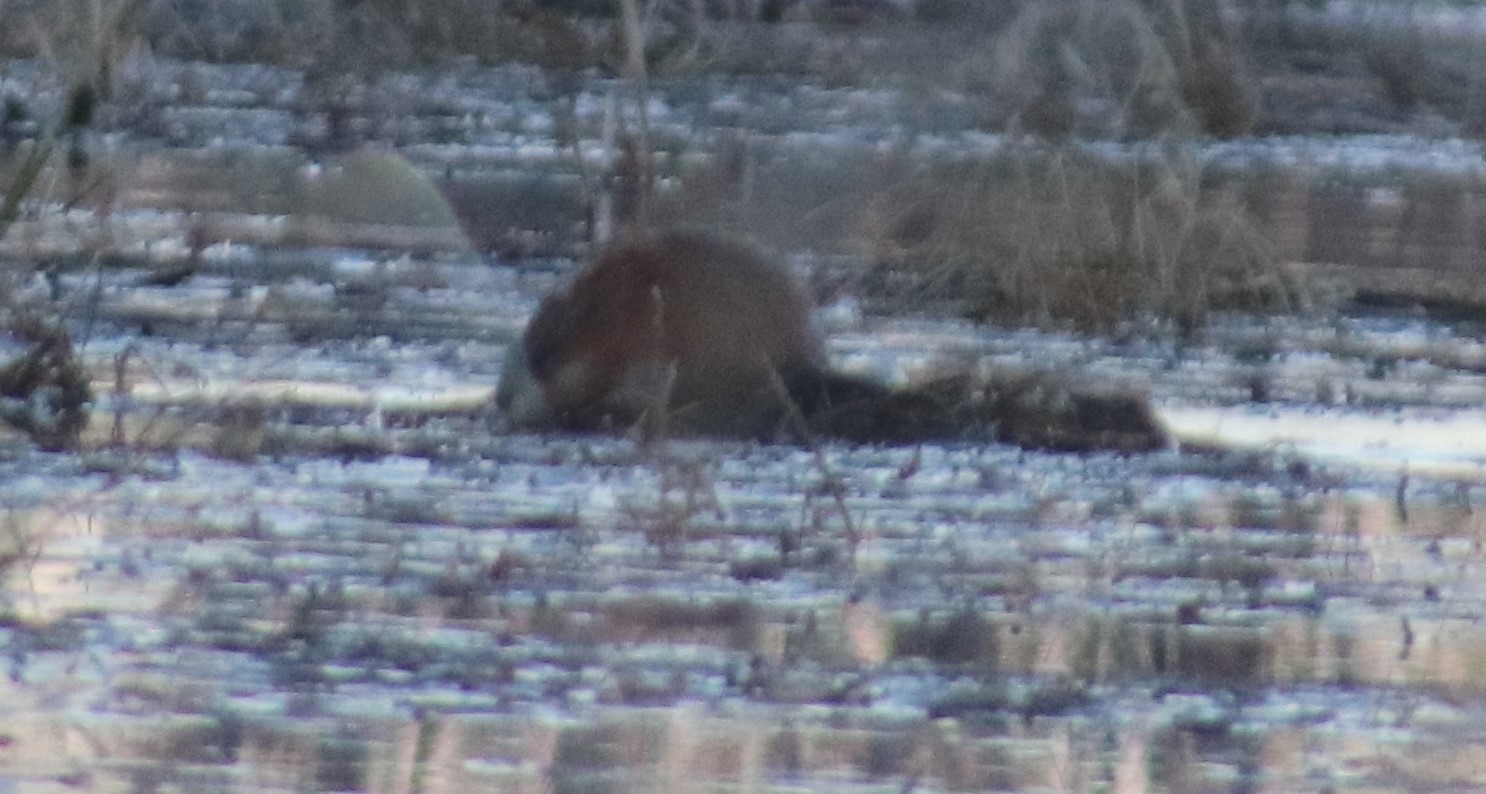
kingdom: Animalia
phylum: Chordata
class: Mammalia
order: Rodentia
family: Cricetidae
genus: Ondatra
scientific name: Ondatra zibethicus
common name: Muskrat
